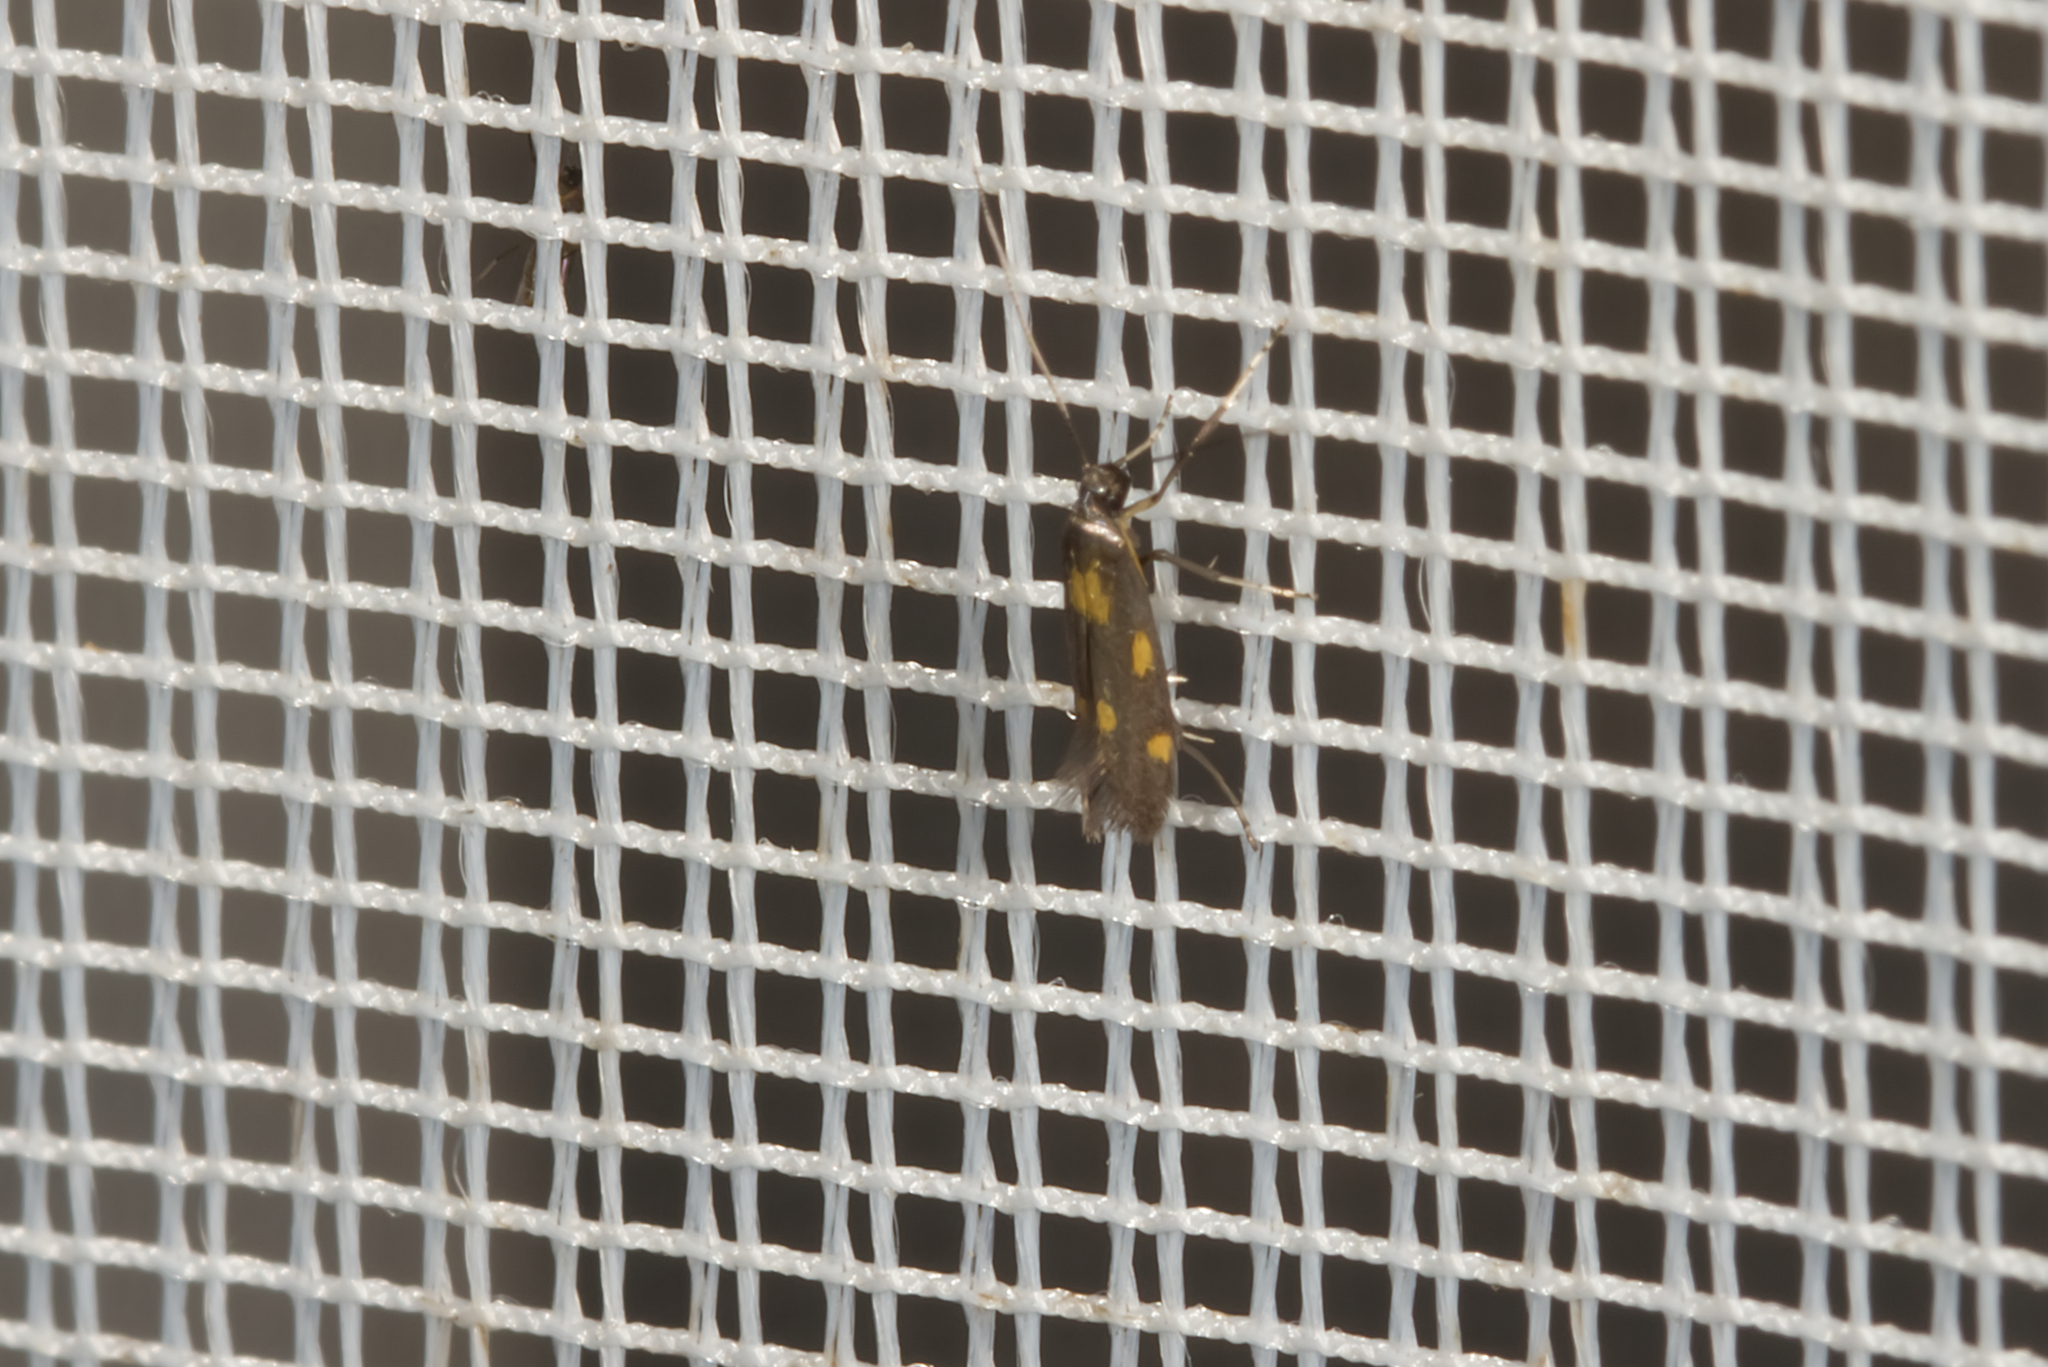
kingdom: Animalia
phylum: Arthropoda
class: Insecta
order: Lepidoptera
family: Gracillariidae
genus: Euspilapteryx
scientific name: Euspilapteryx auroguttella
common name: Gold-dot slender
